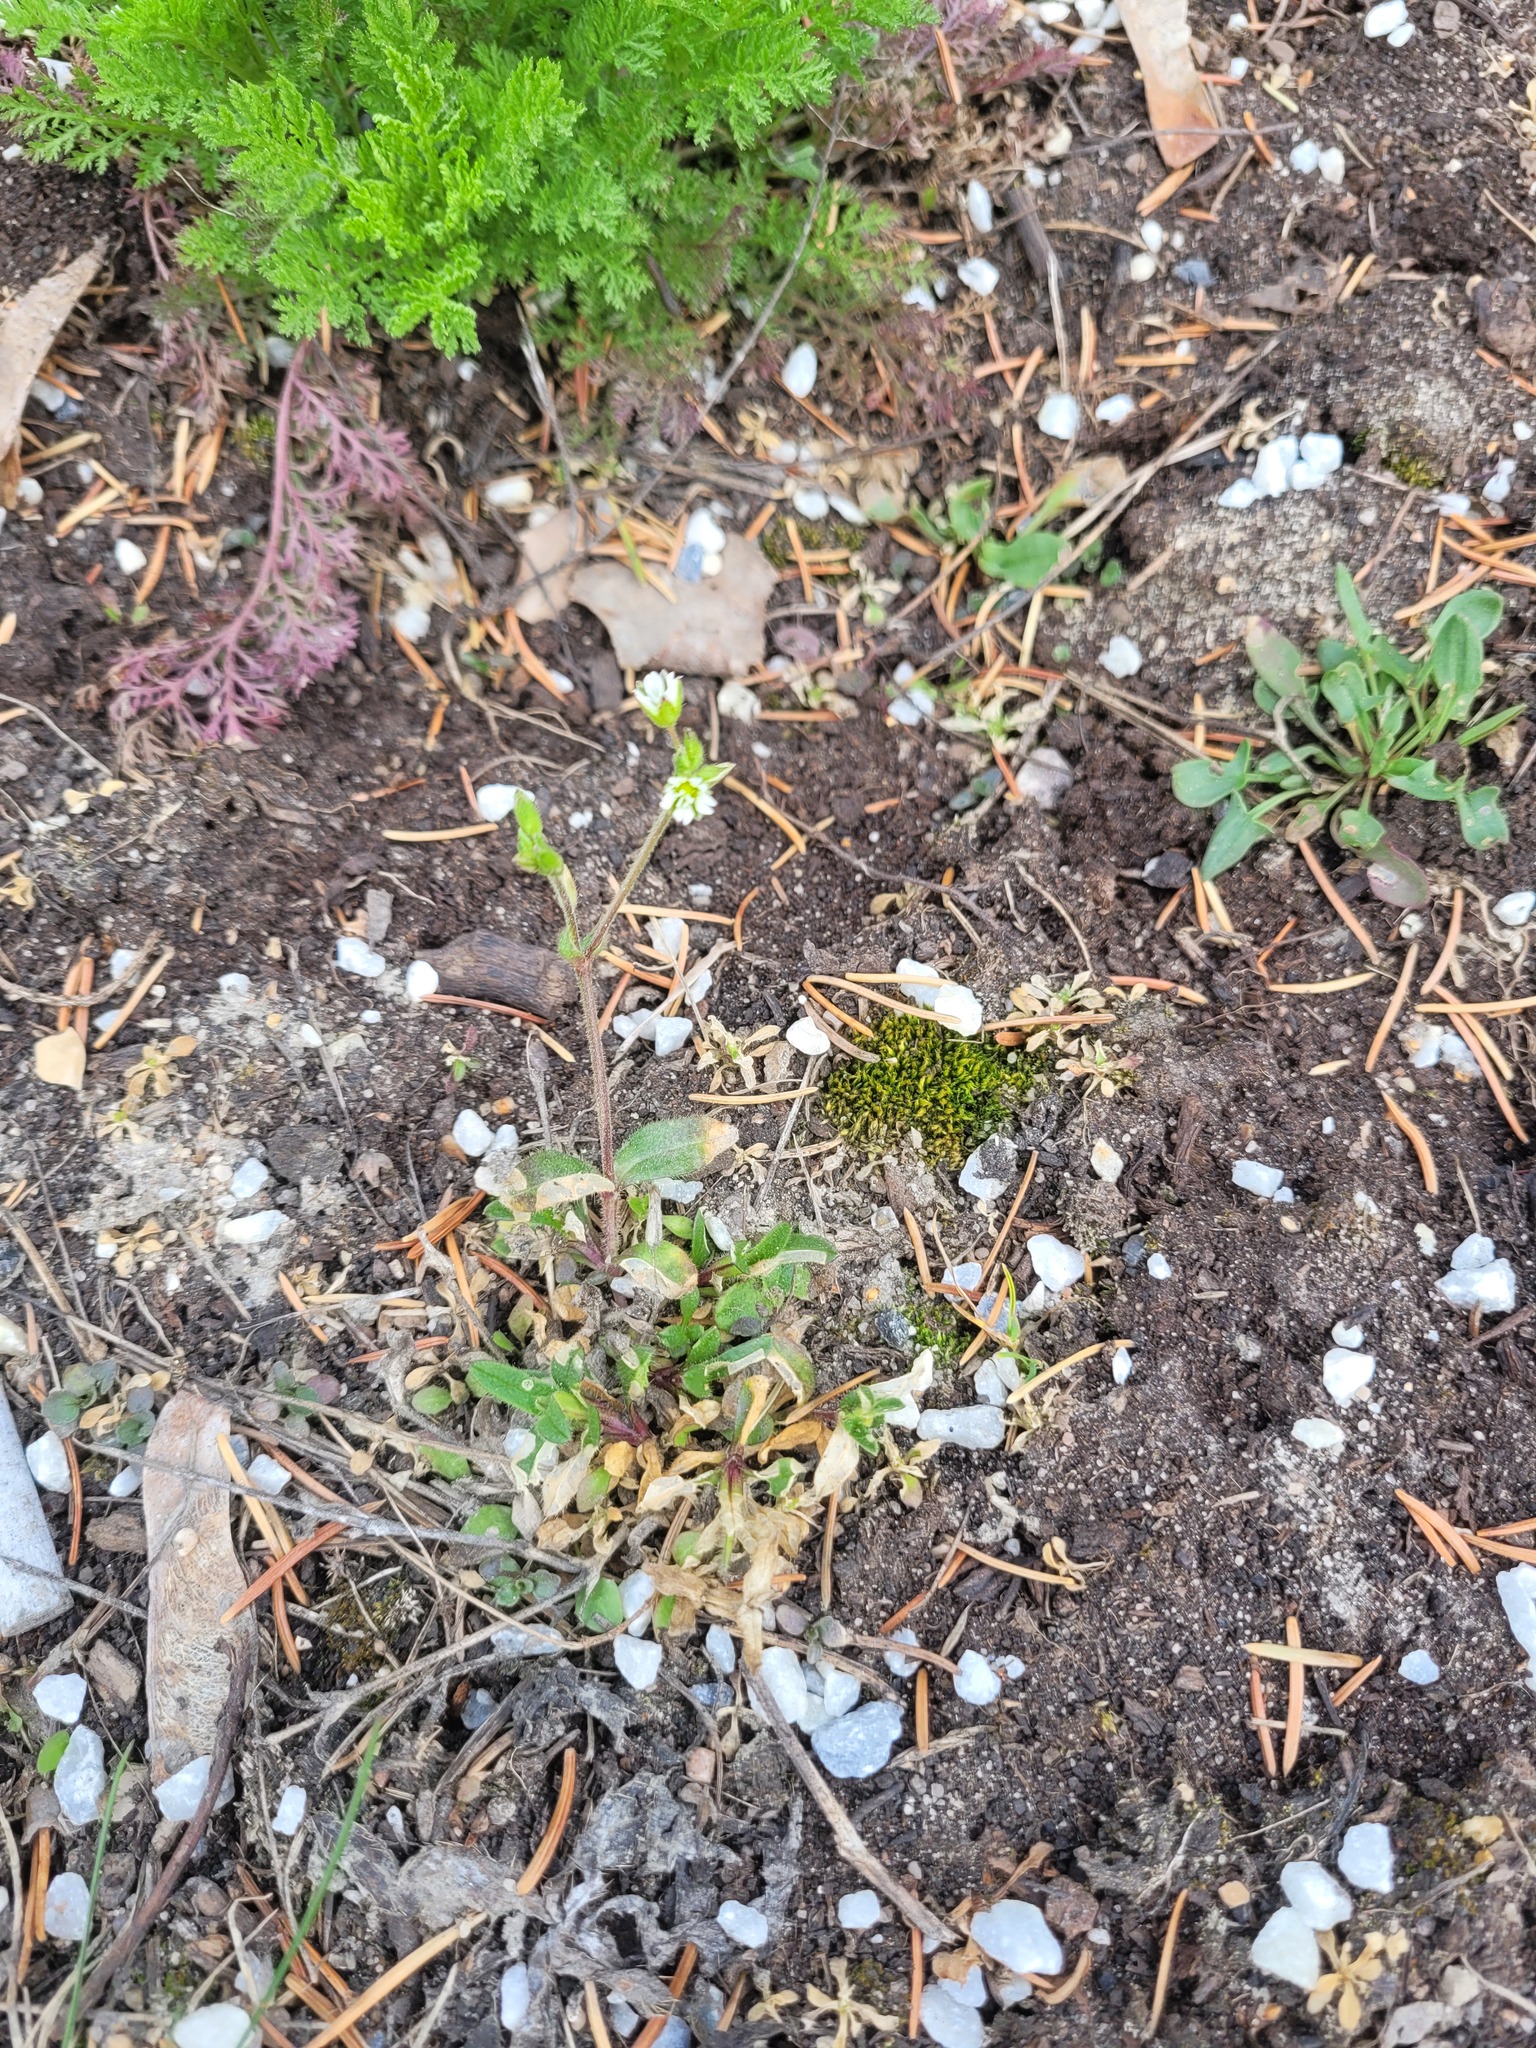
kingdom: Plantae
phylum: Tracheophyta
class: Magnoliopsida
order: Caryophyllales
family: Caryophyllaceae
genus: Cerastium
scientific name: Cerastium holosteoides
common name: Big chickweed
